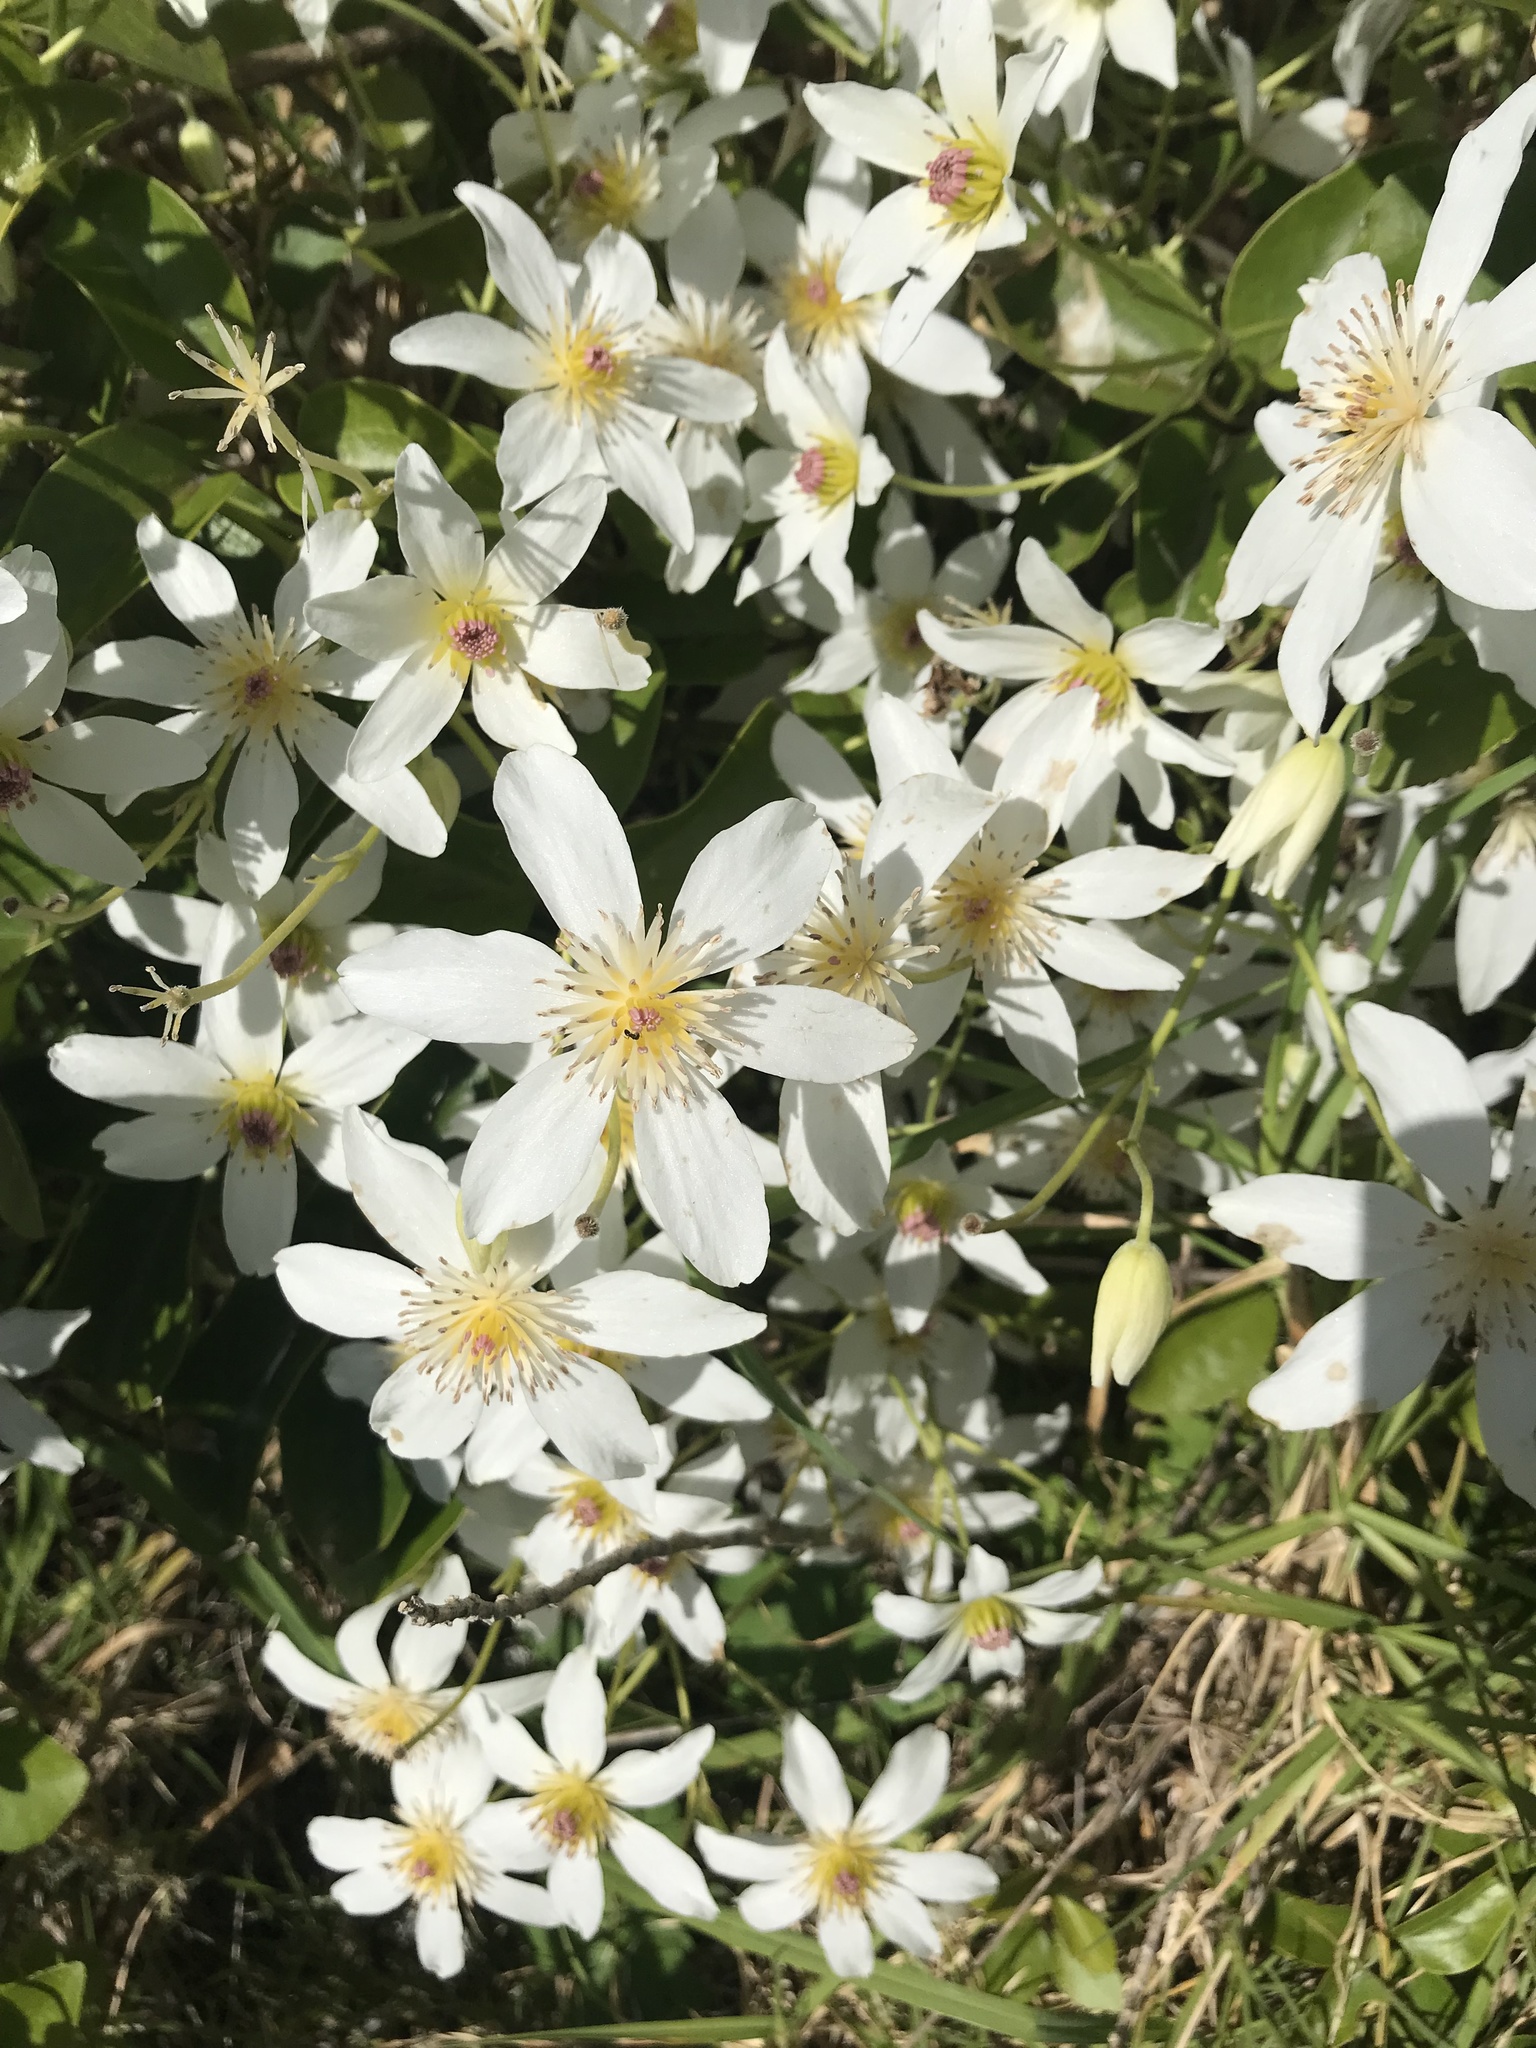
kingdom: Plantae
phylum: Tracheophyta
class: Magnoliopsida
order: Ranunculales
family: Ranunculaceae
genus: Clematis
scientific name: Clematis paniculata
